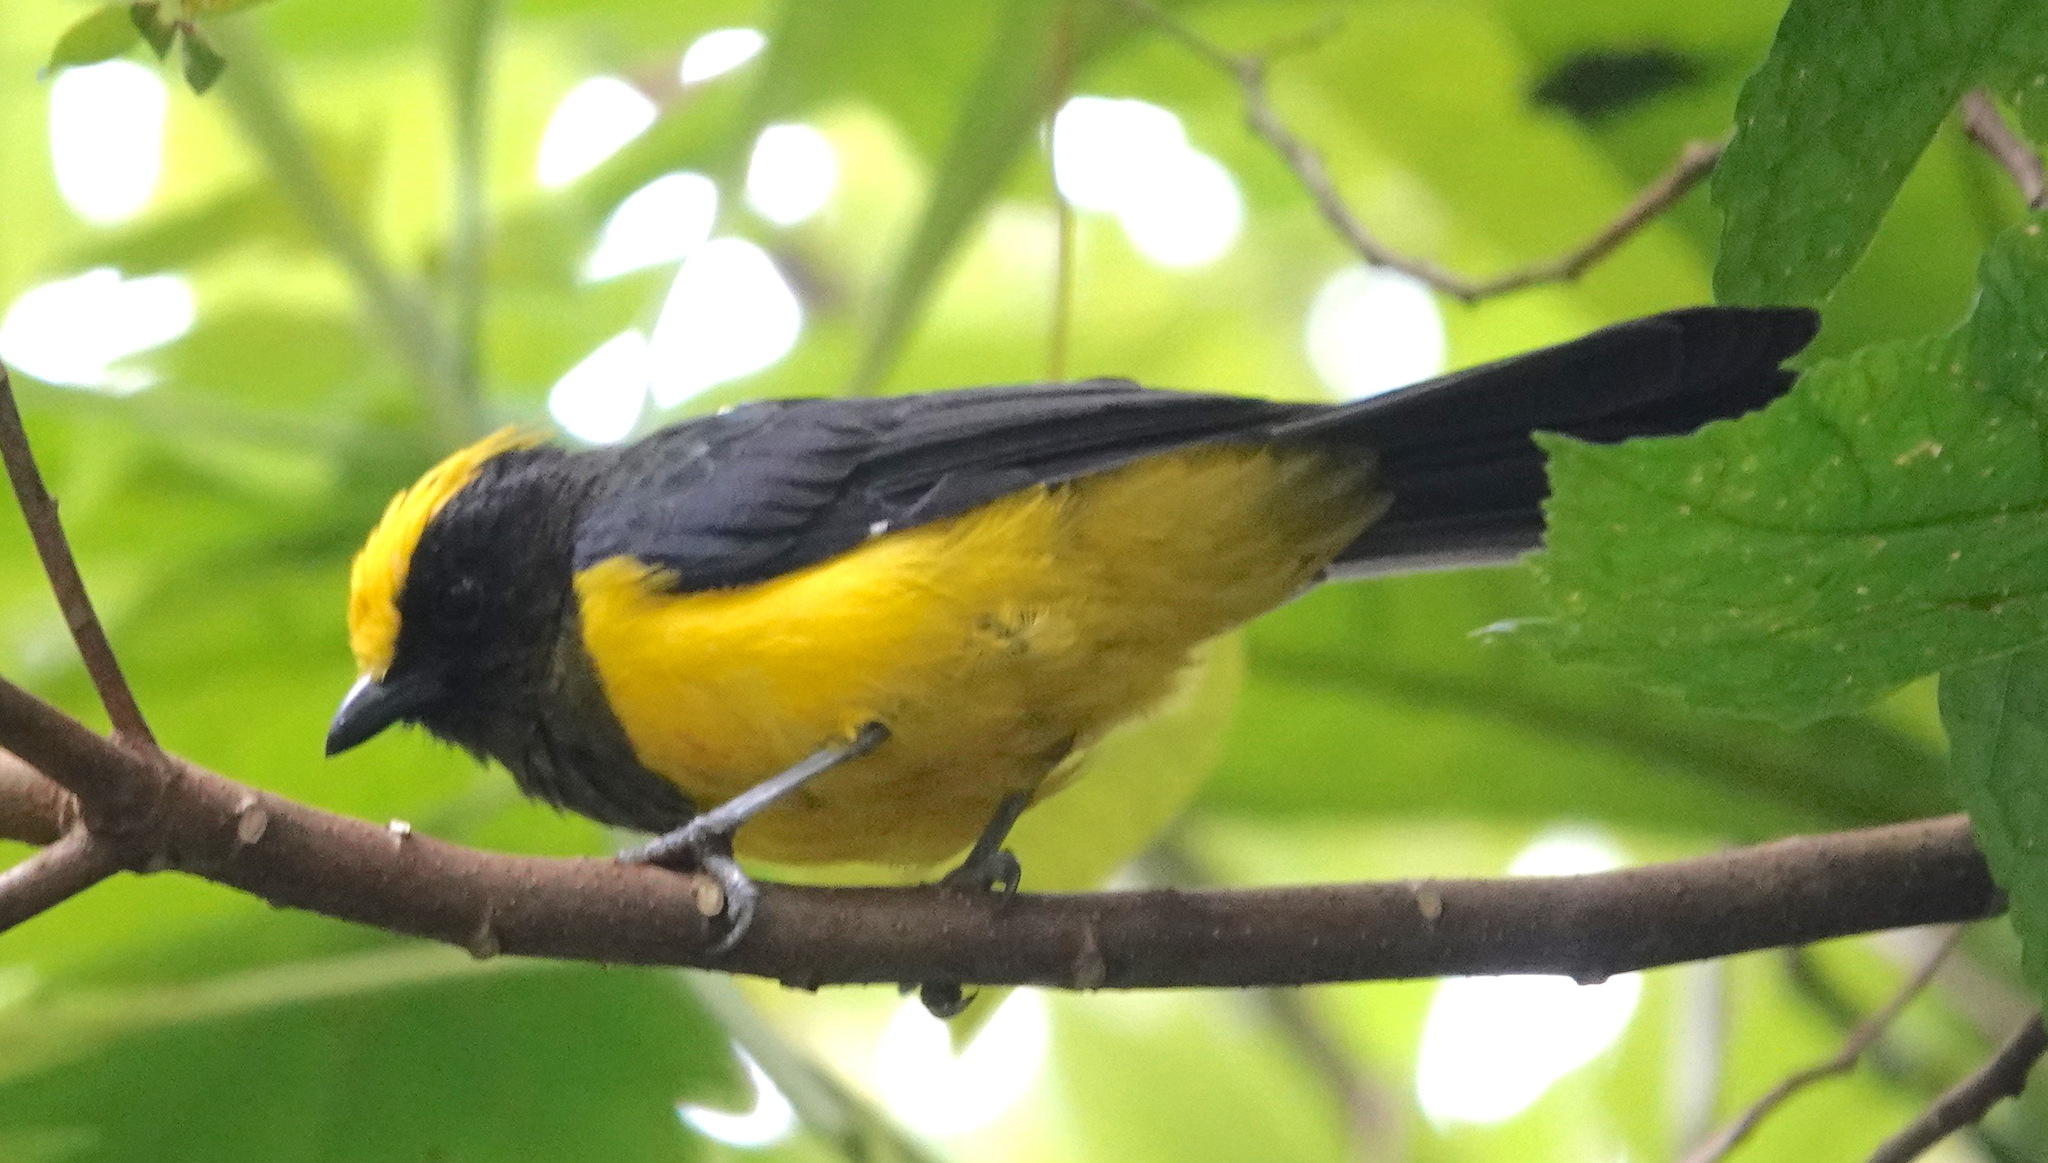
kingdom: Animalia
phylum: Chordata
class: Aves
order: Passeriformes
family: Paridae
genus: Melanochlora
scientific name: Melanochlora sultanea
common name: Sultan tit
